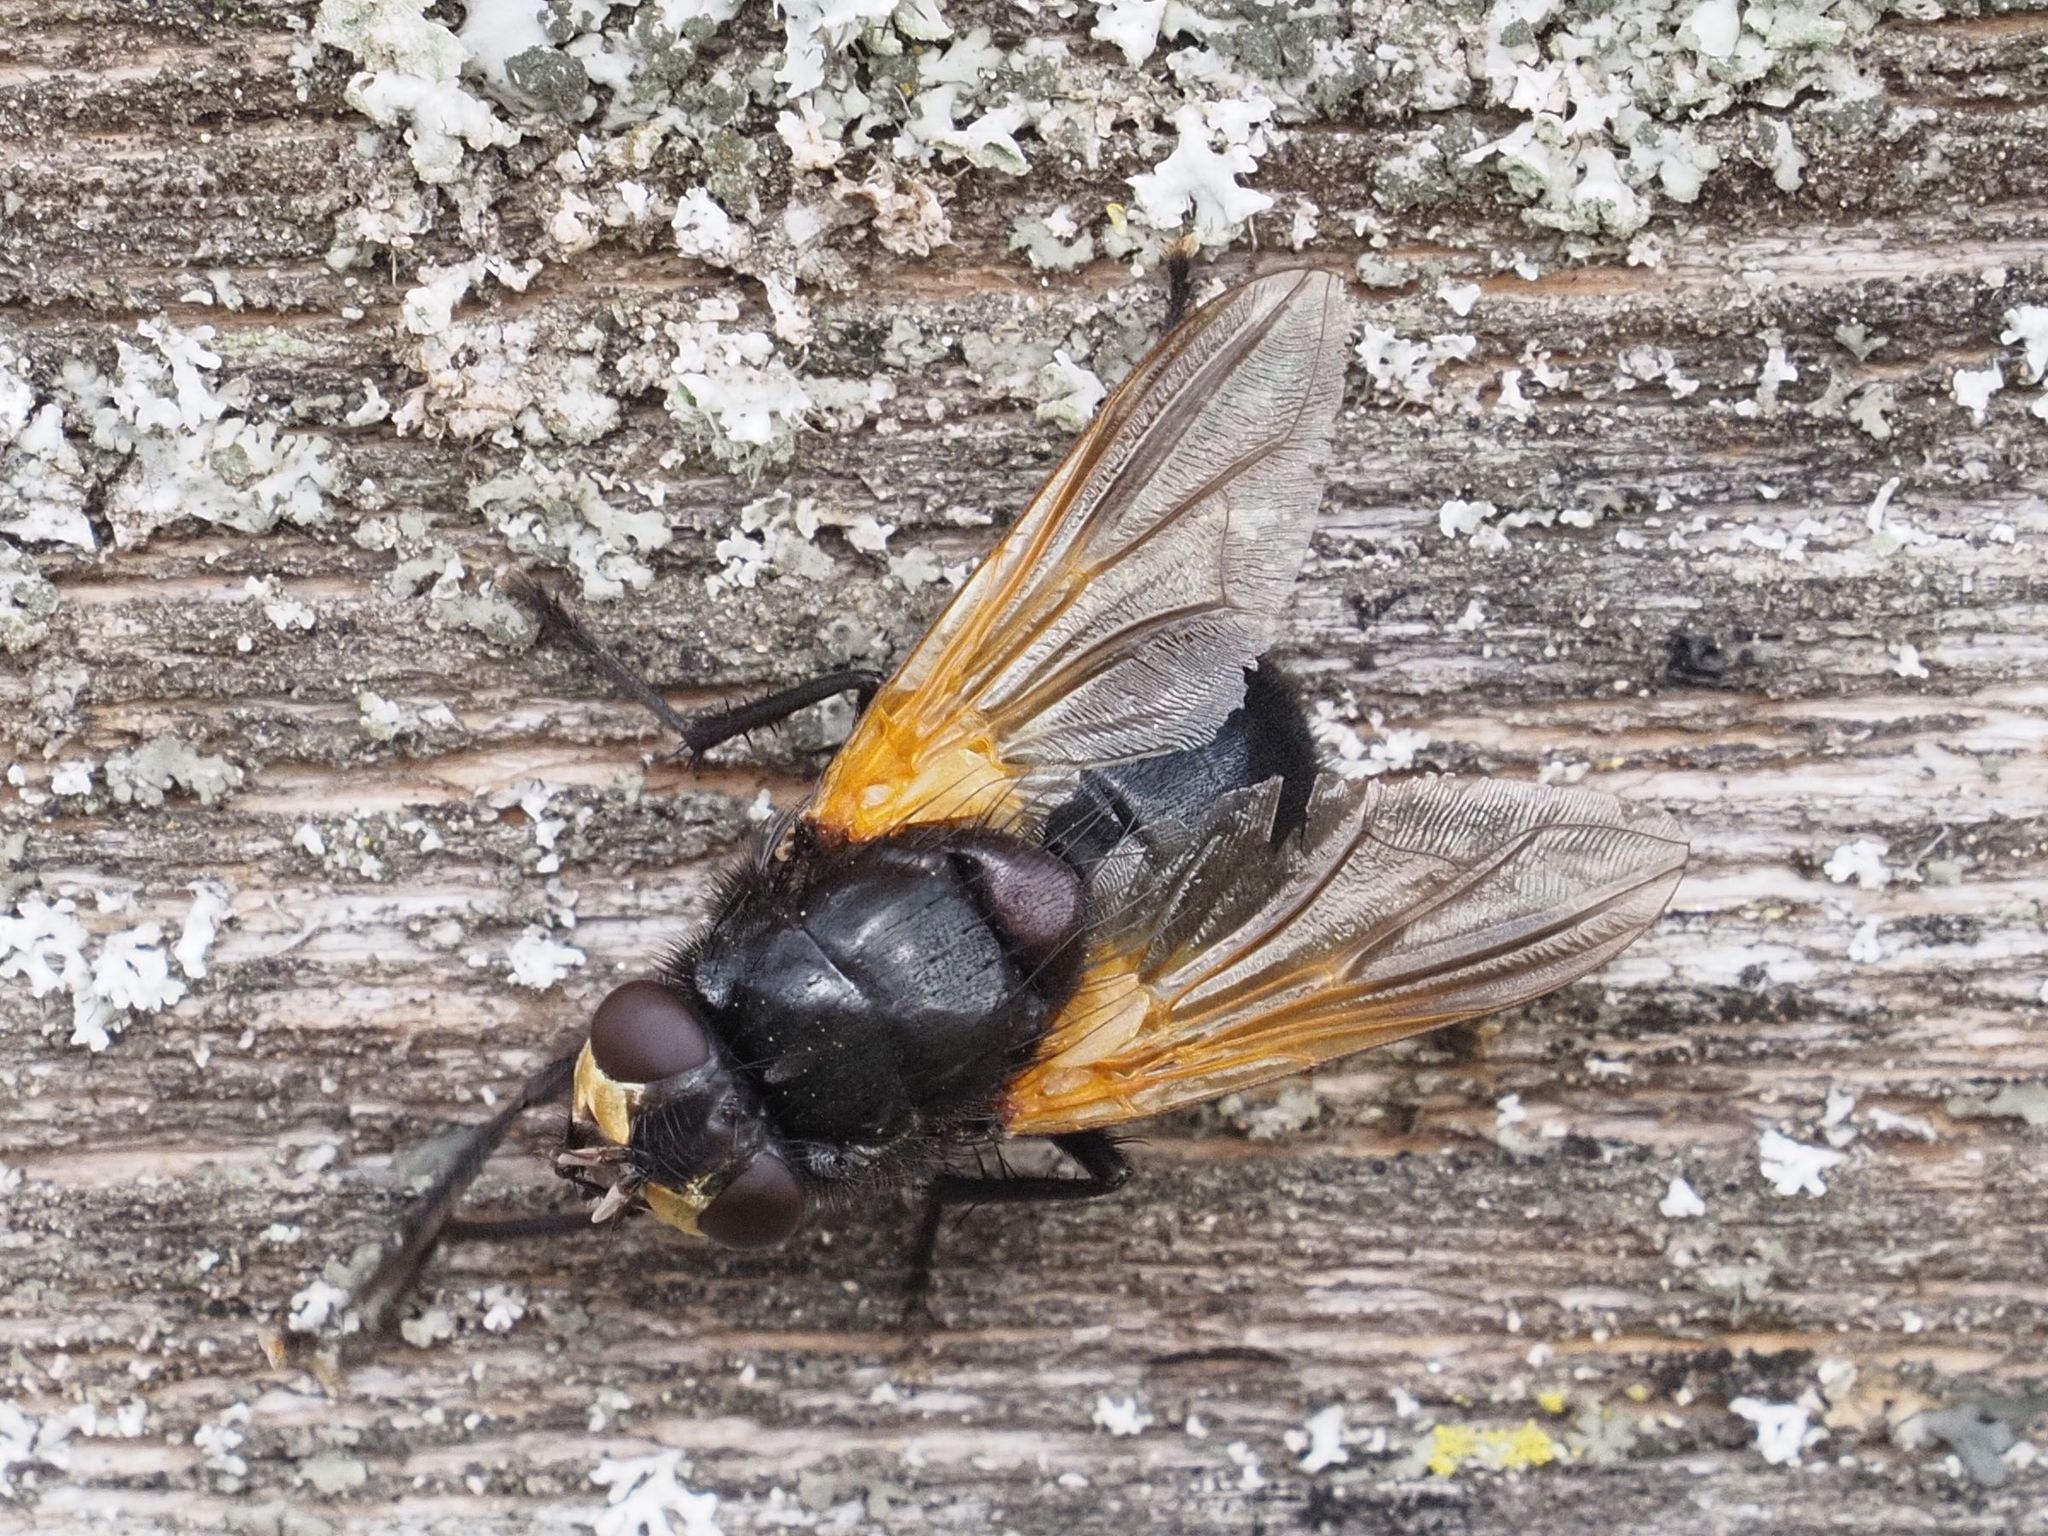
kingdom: Animalia
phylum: Arthropoda
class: Insecta
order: Diptera
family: Muscidae
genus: Mesembrina
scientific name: Mesembrina meridiana
